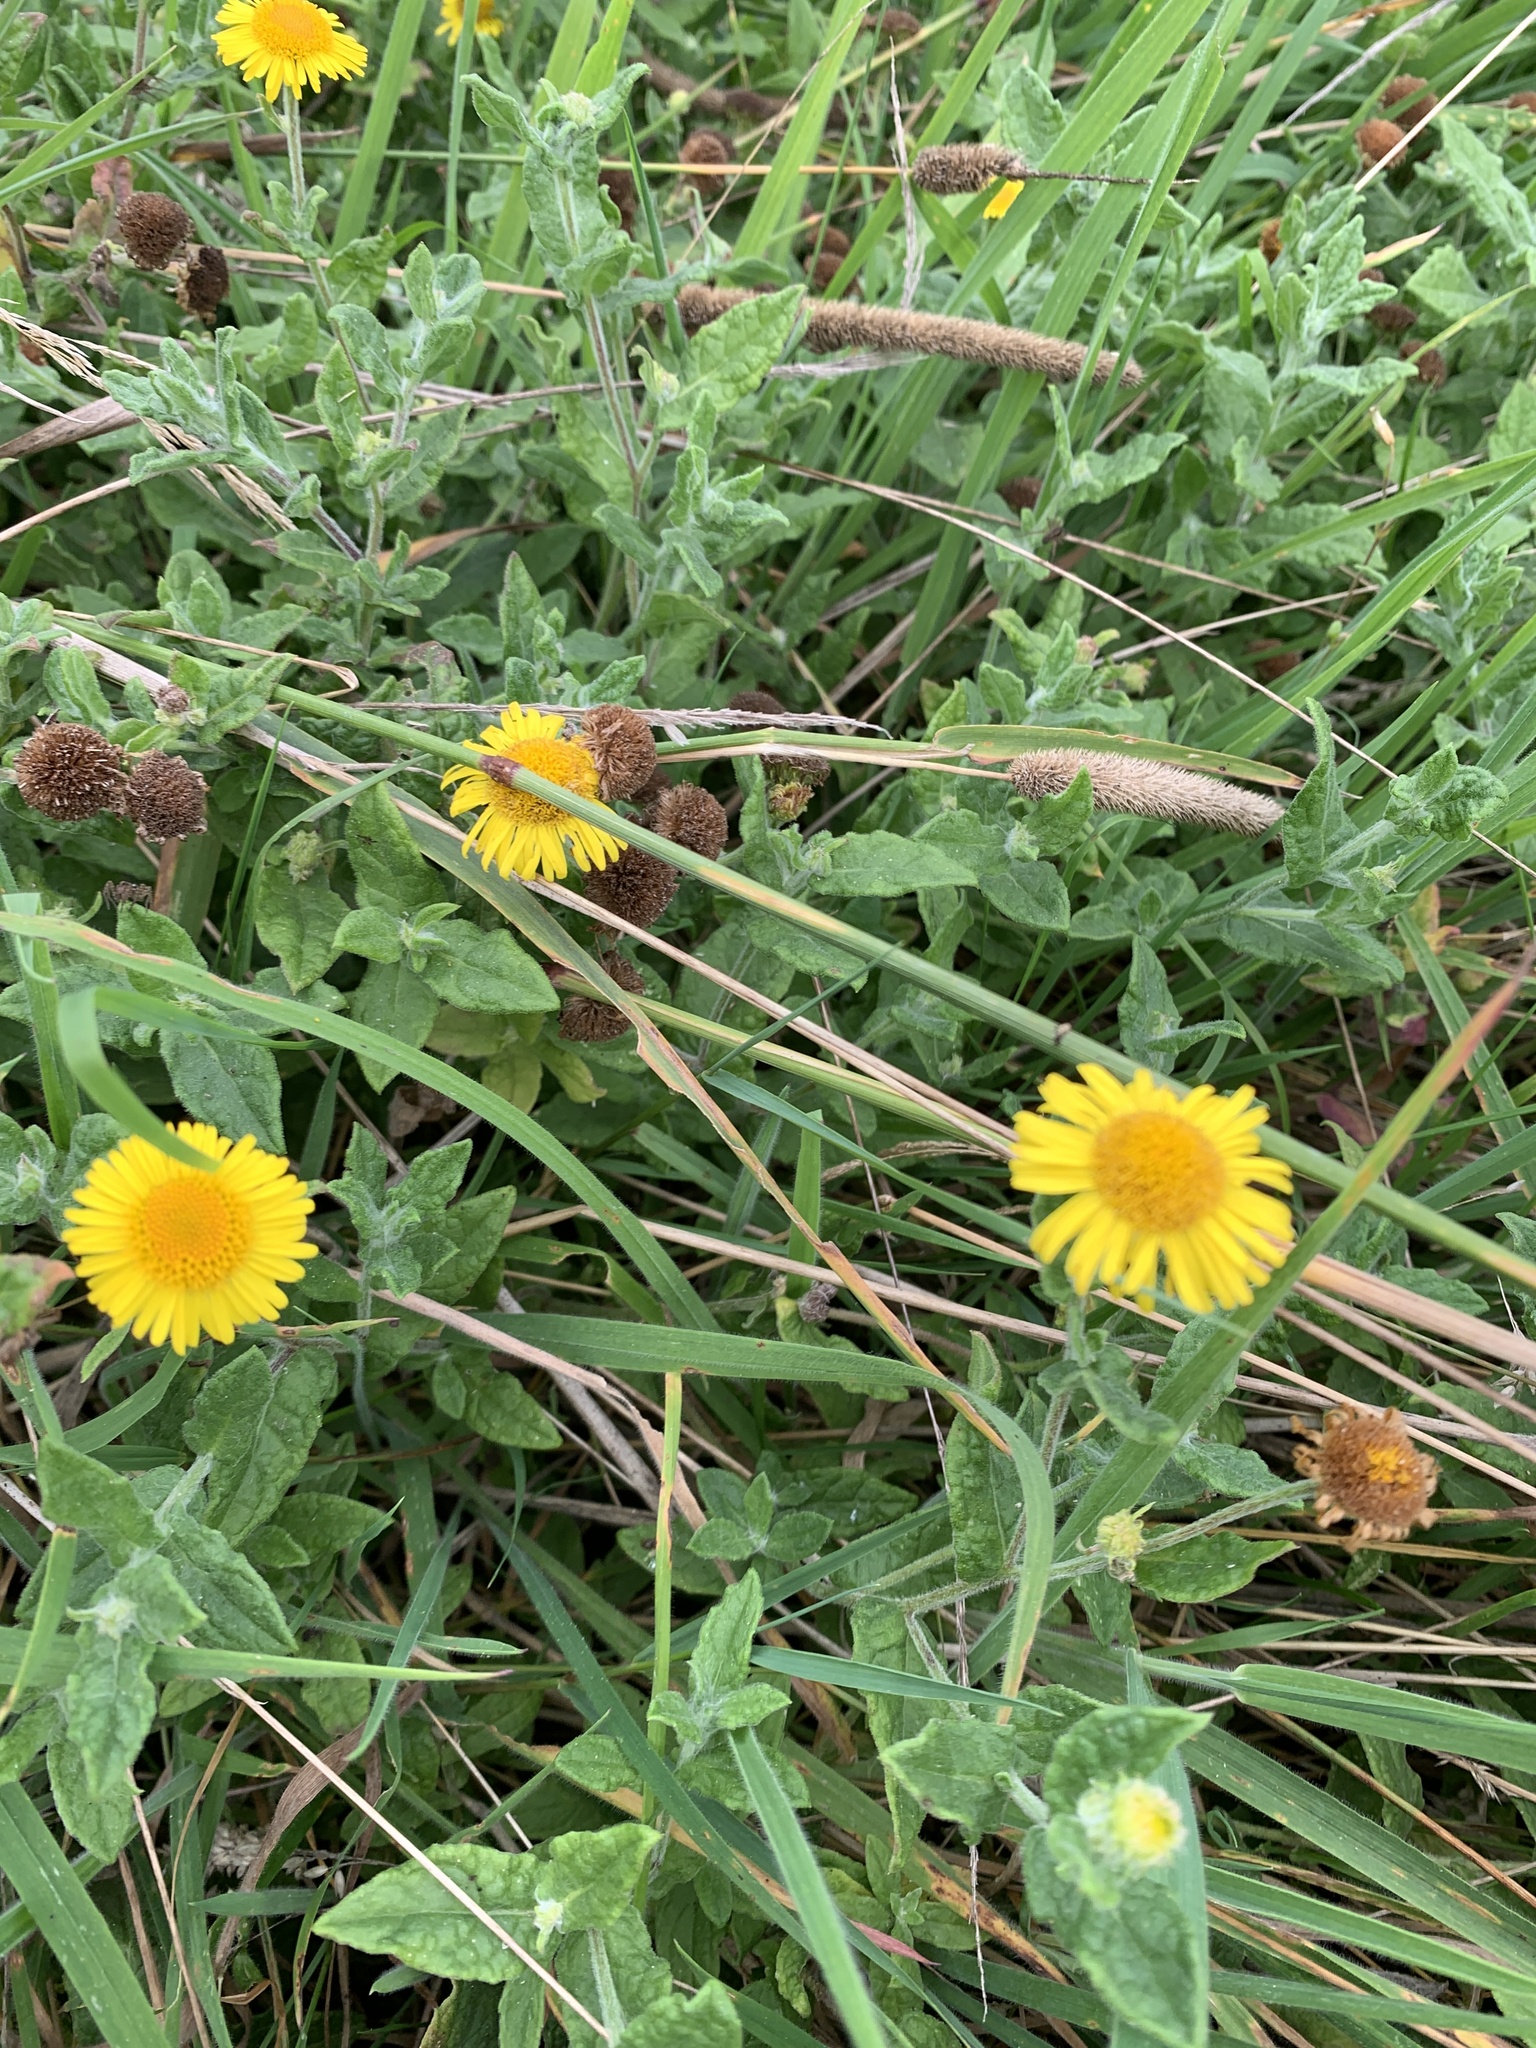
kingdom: Plantae
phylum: Tracheophyta
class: Magnoliopsida
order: Asterales
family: Asteraceae
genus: Pulicaria
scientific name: Pulicaria dysenterica
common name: Common fleabane
